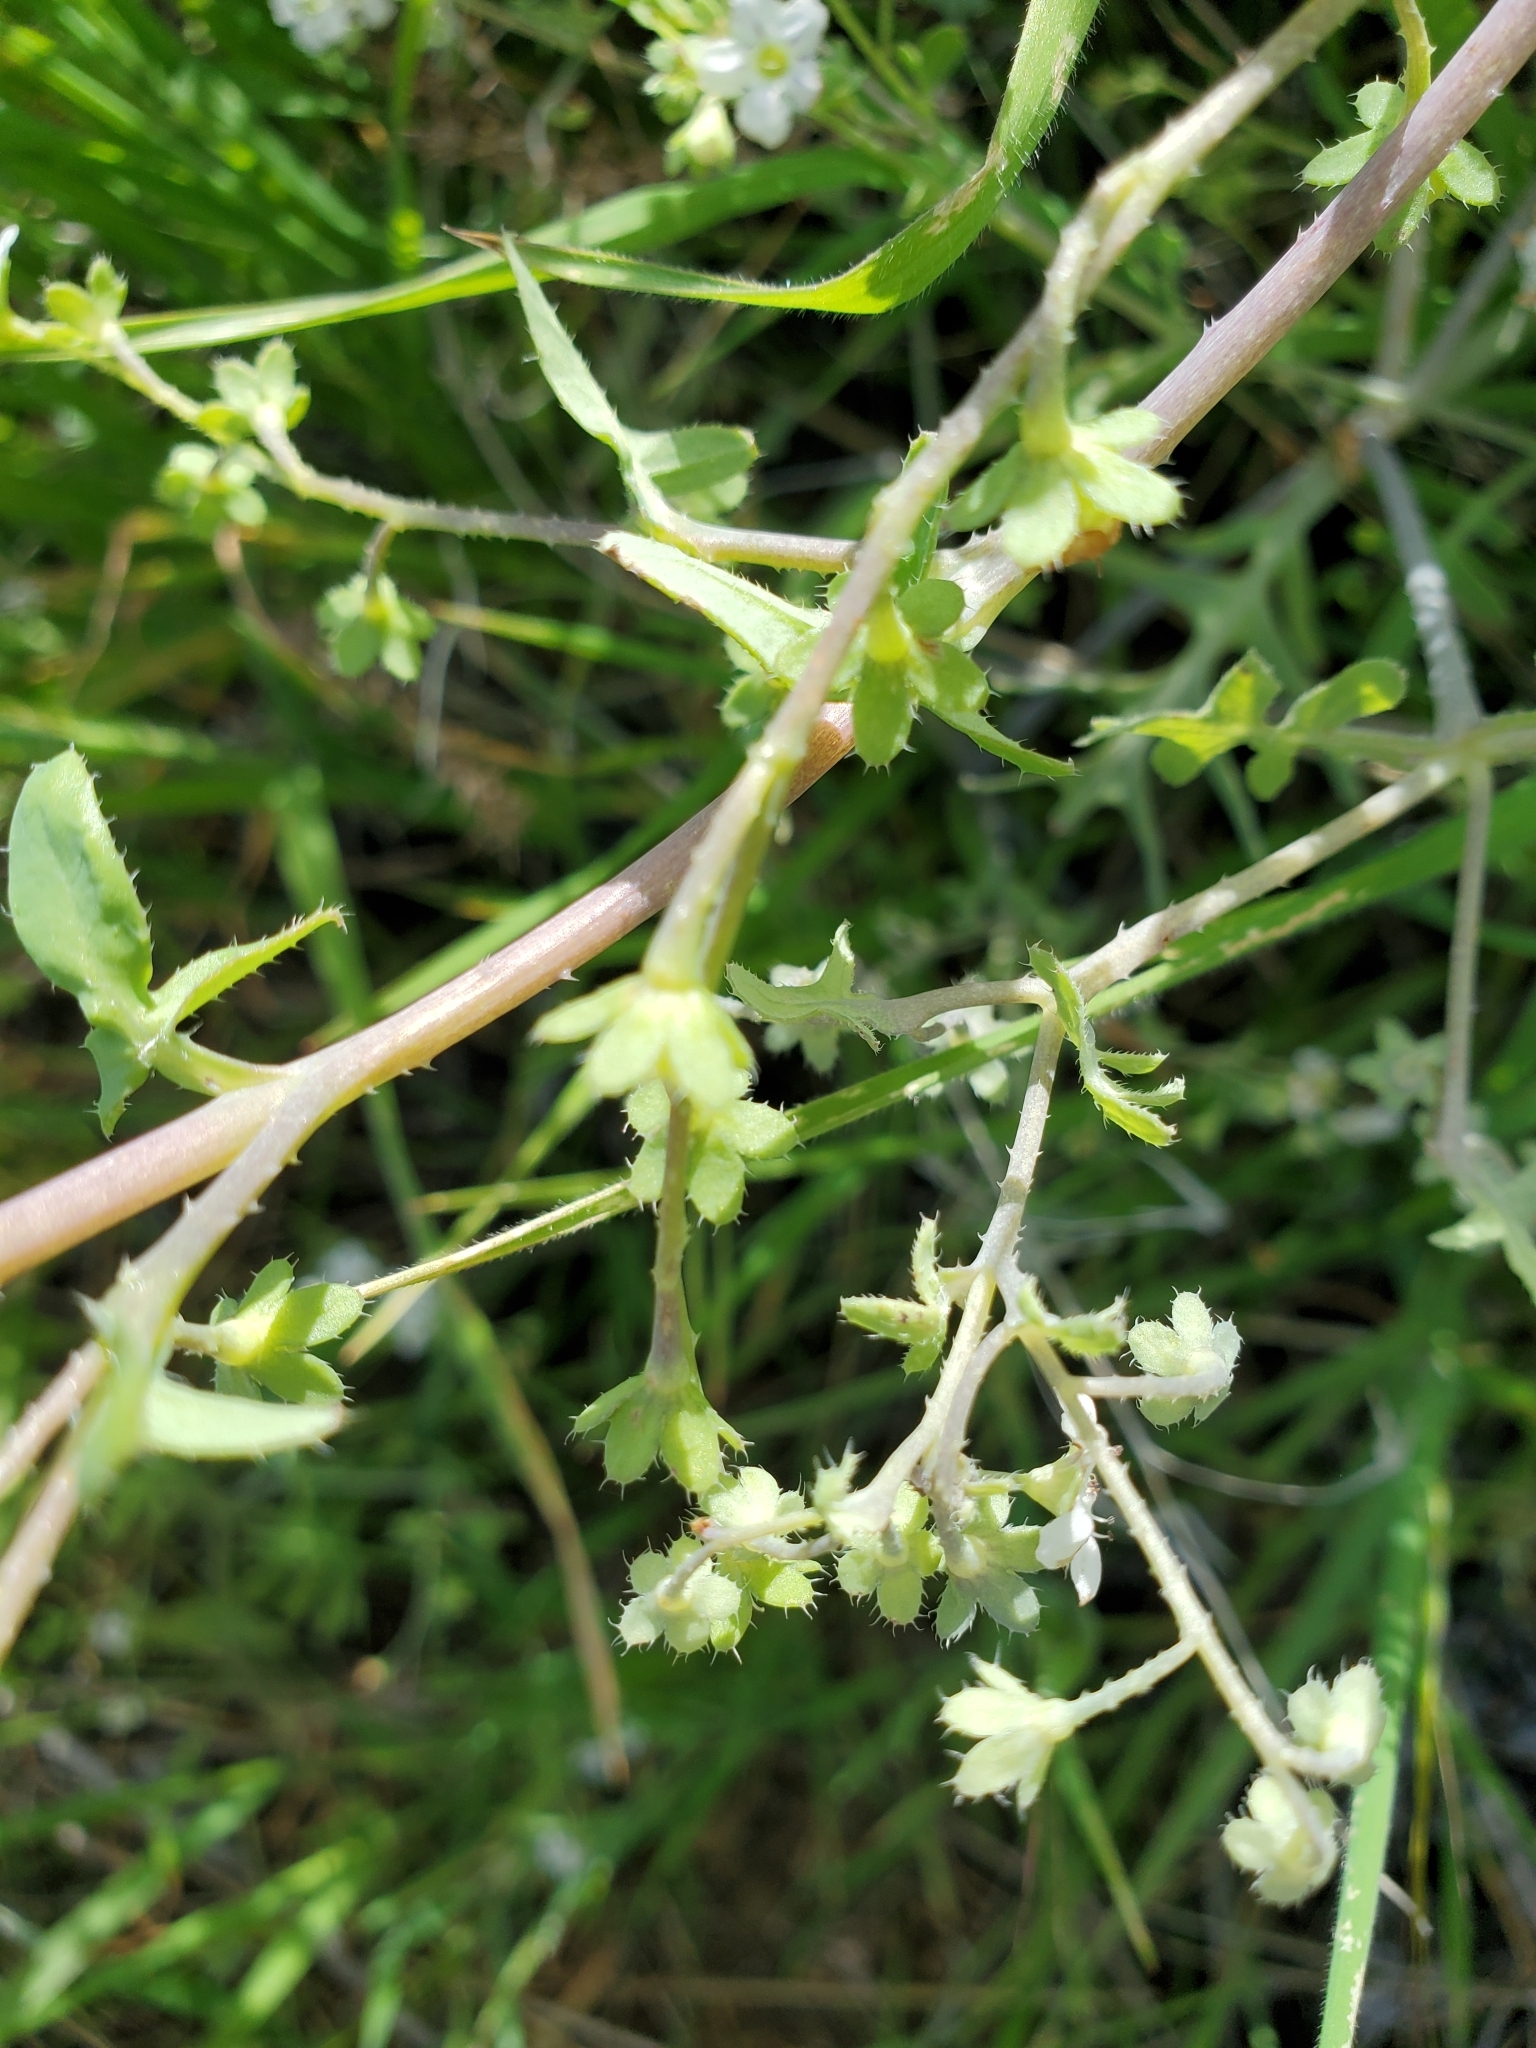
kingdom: Plantae
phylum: Tracheophyta
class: Magnoliopsida
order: Boraginales
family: Hydrophyllaceae
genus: Pholistoma
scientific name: Pholistoma membranaceum
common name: White fiesta-flower
